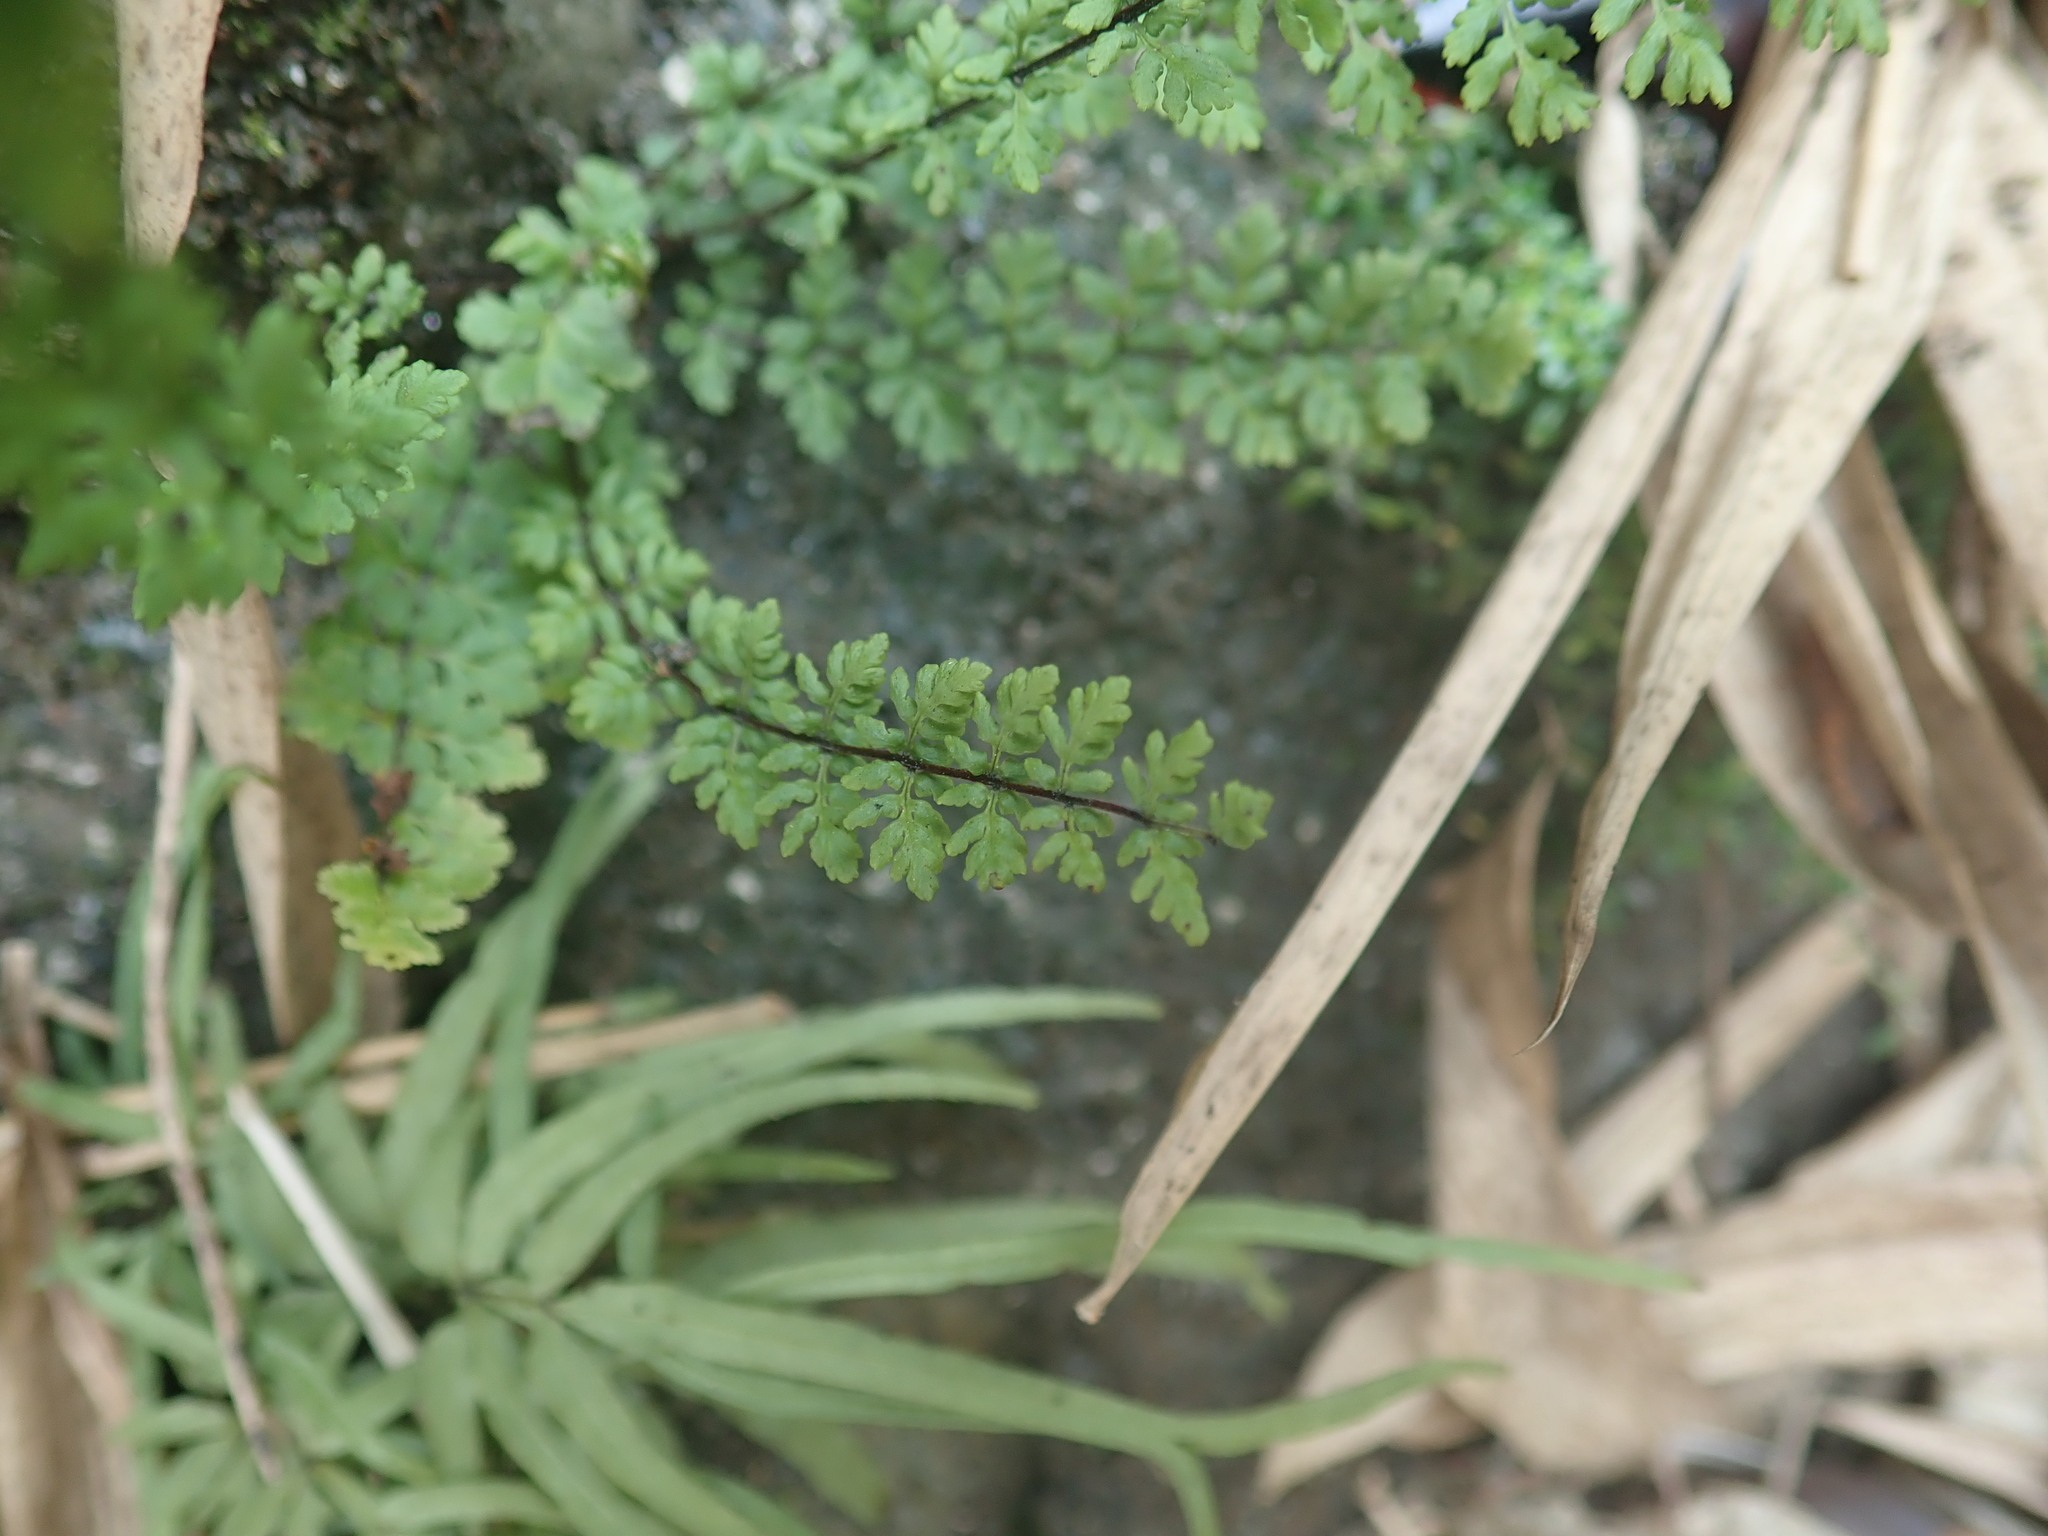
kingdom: Plantae
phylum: Tracheophyta
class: Polypodiopsida
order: Polypodiales
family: Pteridaceae
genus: Oeosporangium
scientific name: Oeosporangium chusanum
